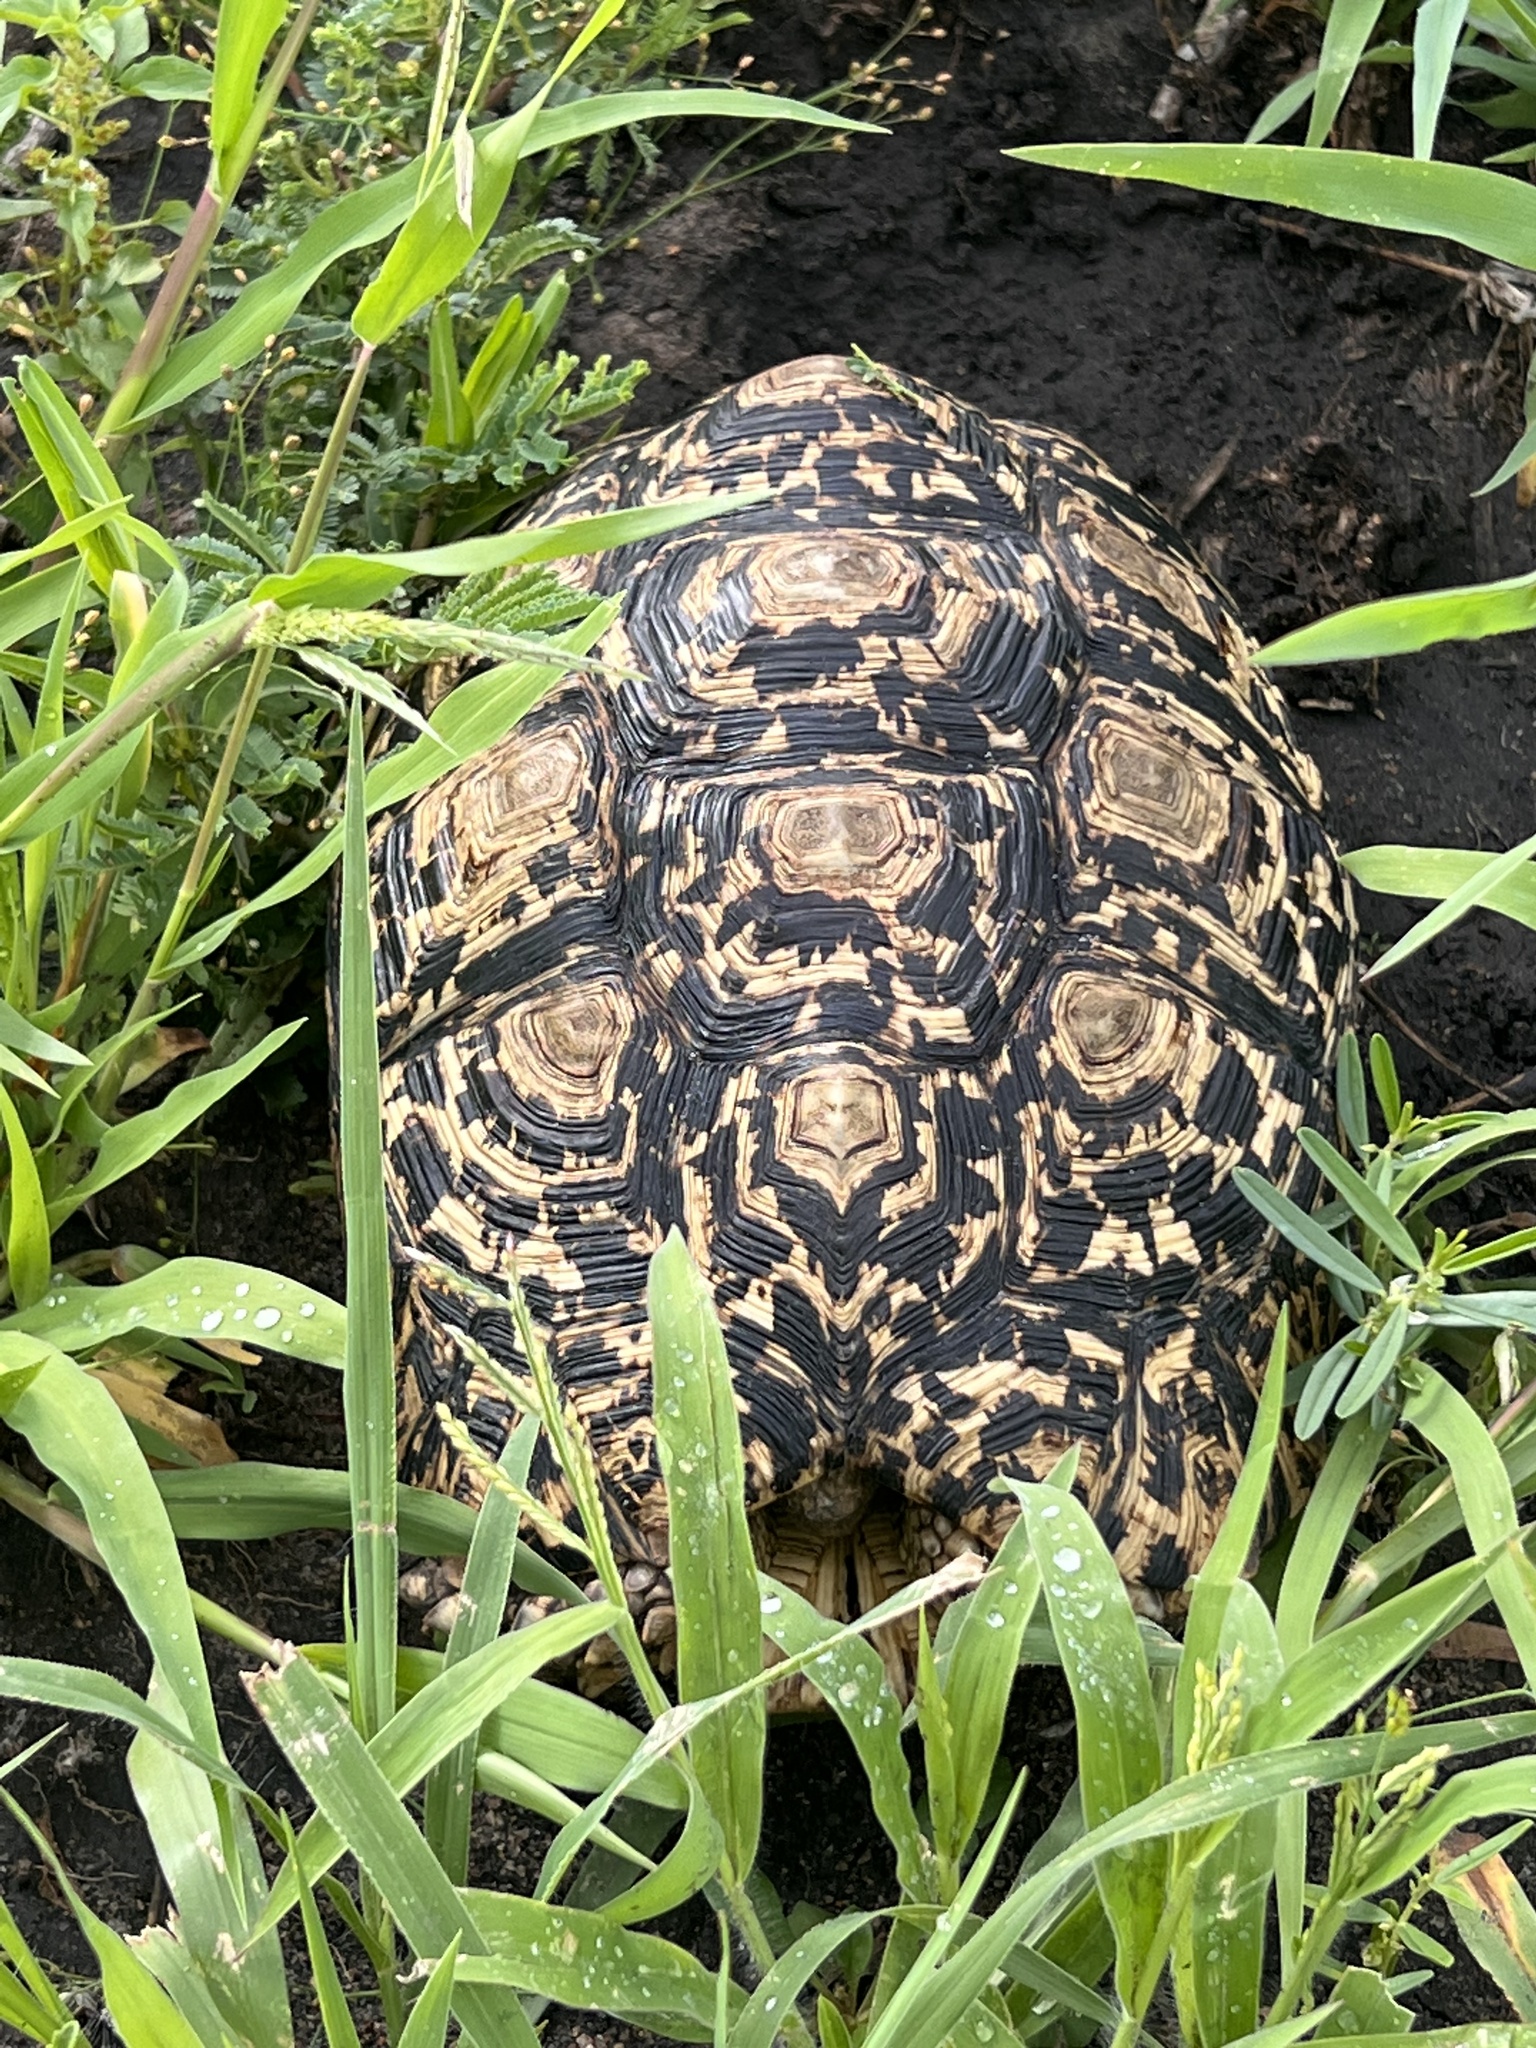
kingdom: Animalia
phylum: Chordata
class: Testudines
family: Testudinidae
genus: Stigmochelys
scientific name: Stigmochelys pardalis
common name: Leopard tortoise
